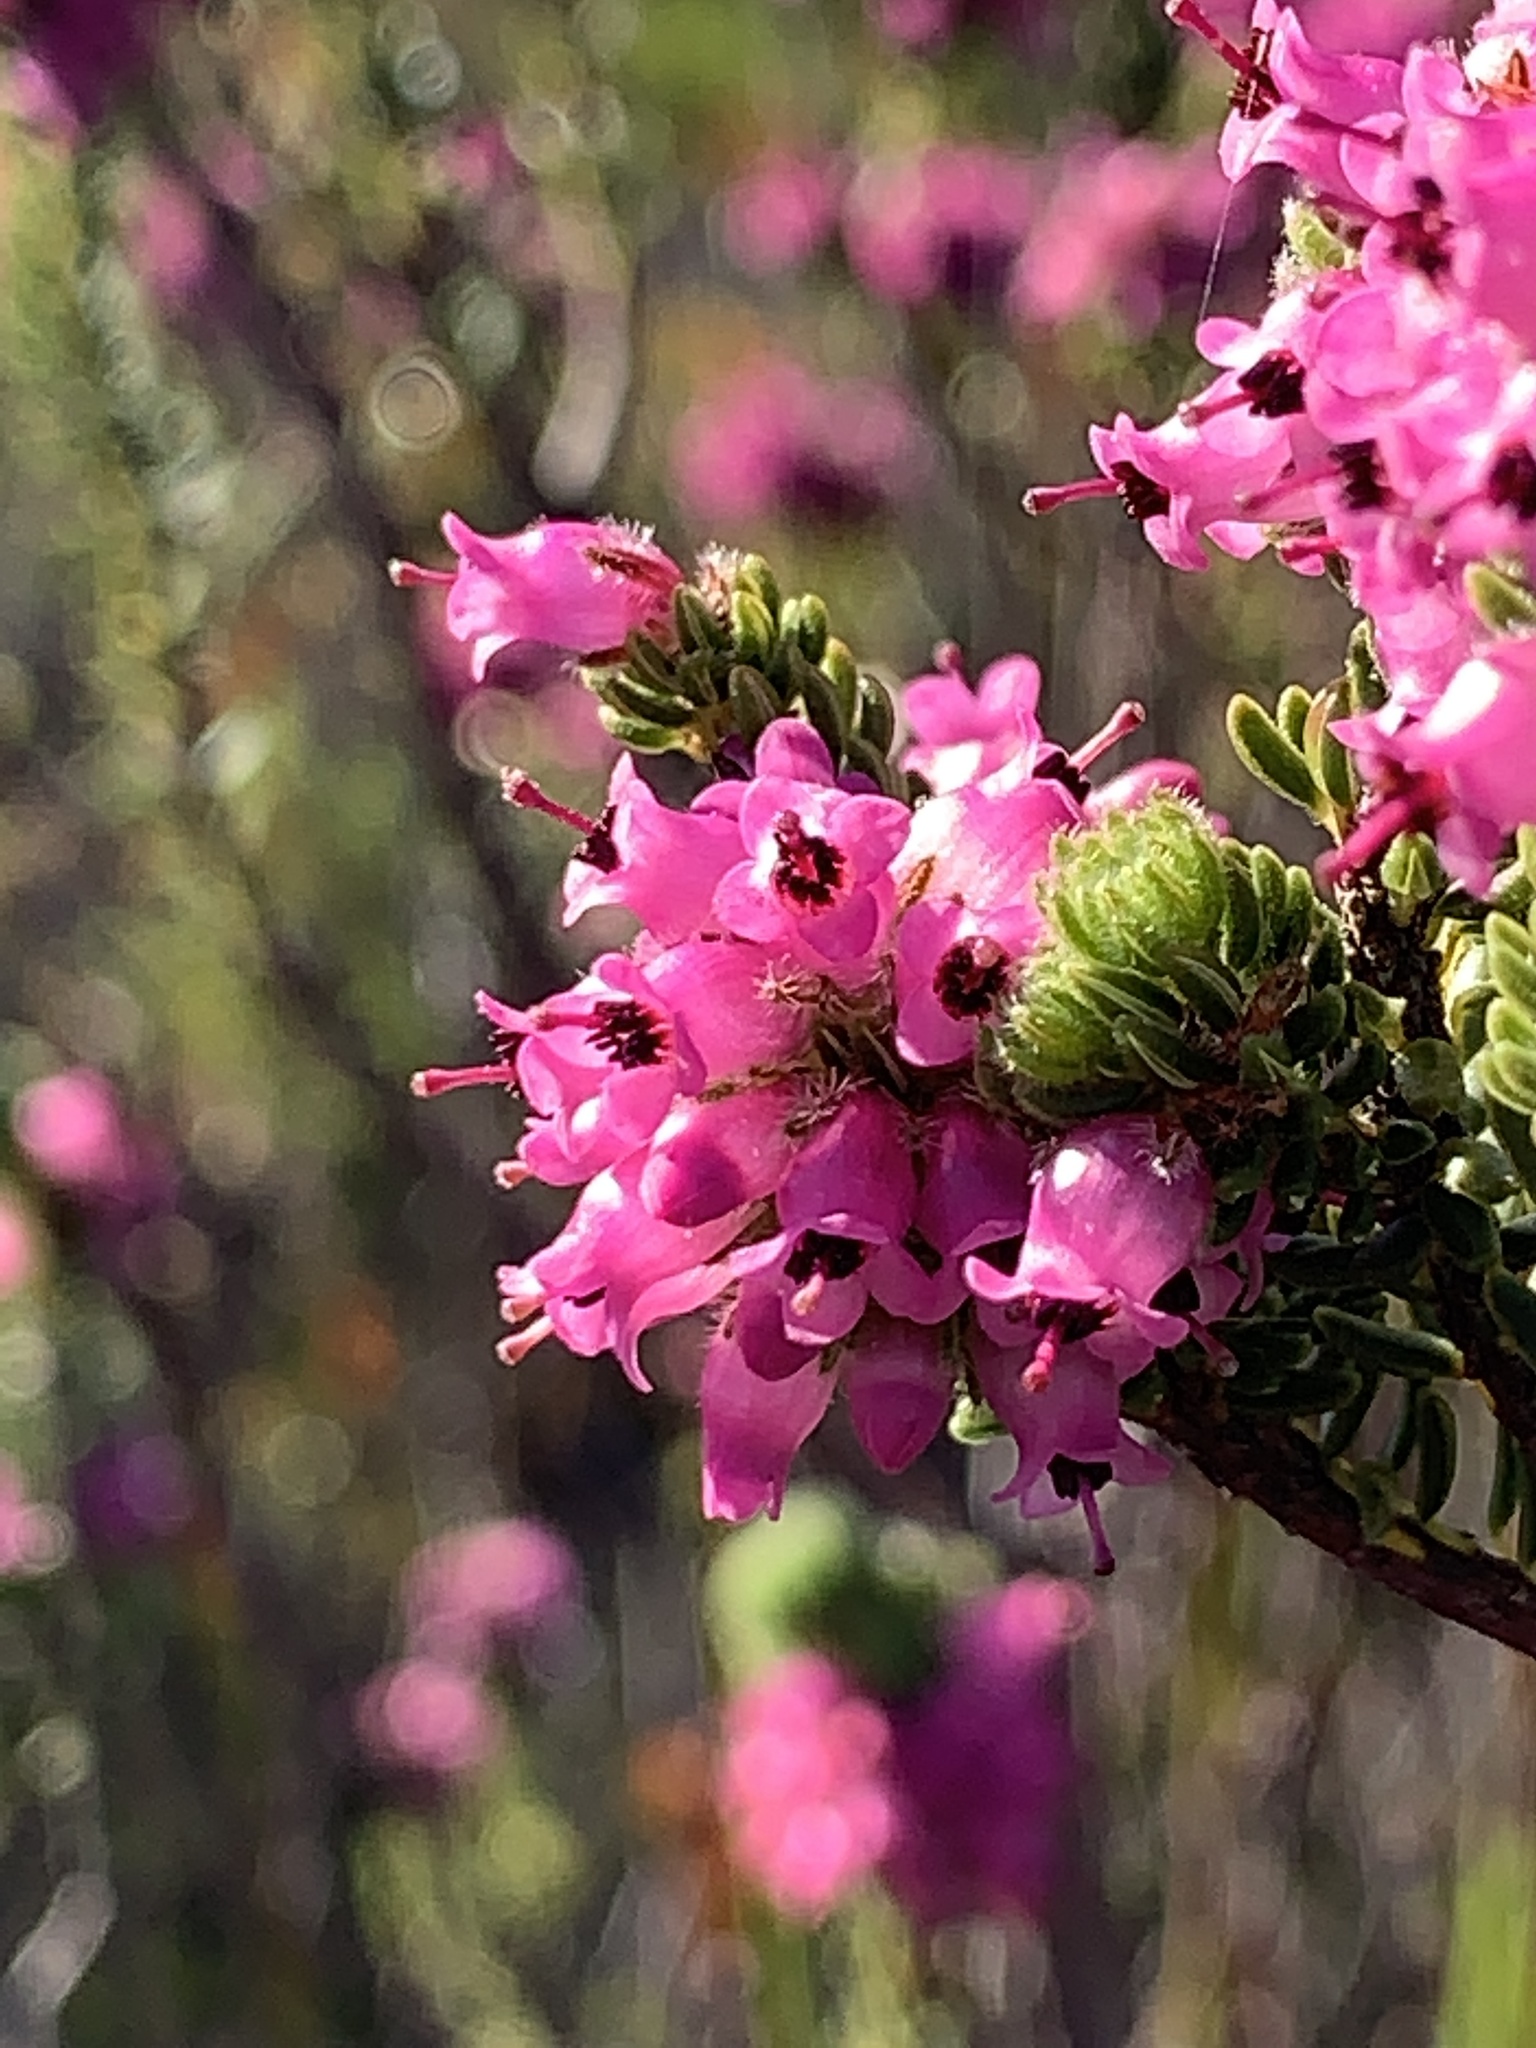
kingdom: Plantae
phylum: Tracheophyta
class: Magnoliopsida
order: Ericales
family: Ericaceae
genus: Erica
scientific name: Erica empetrina
